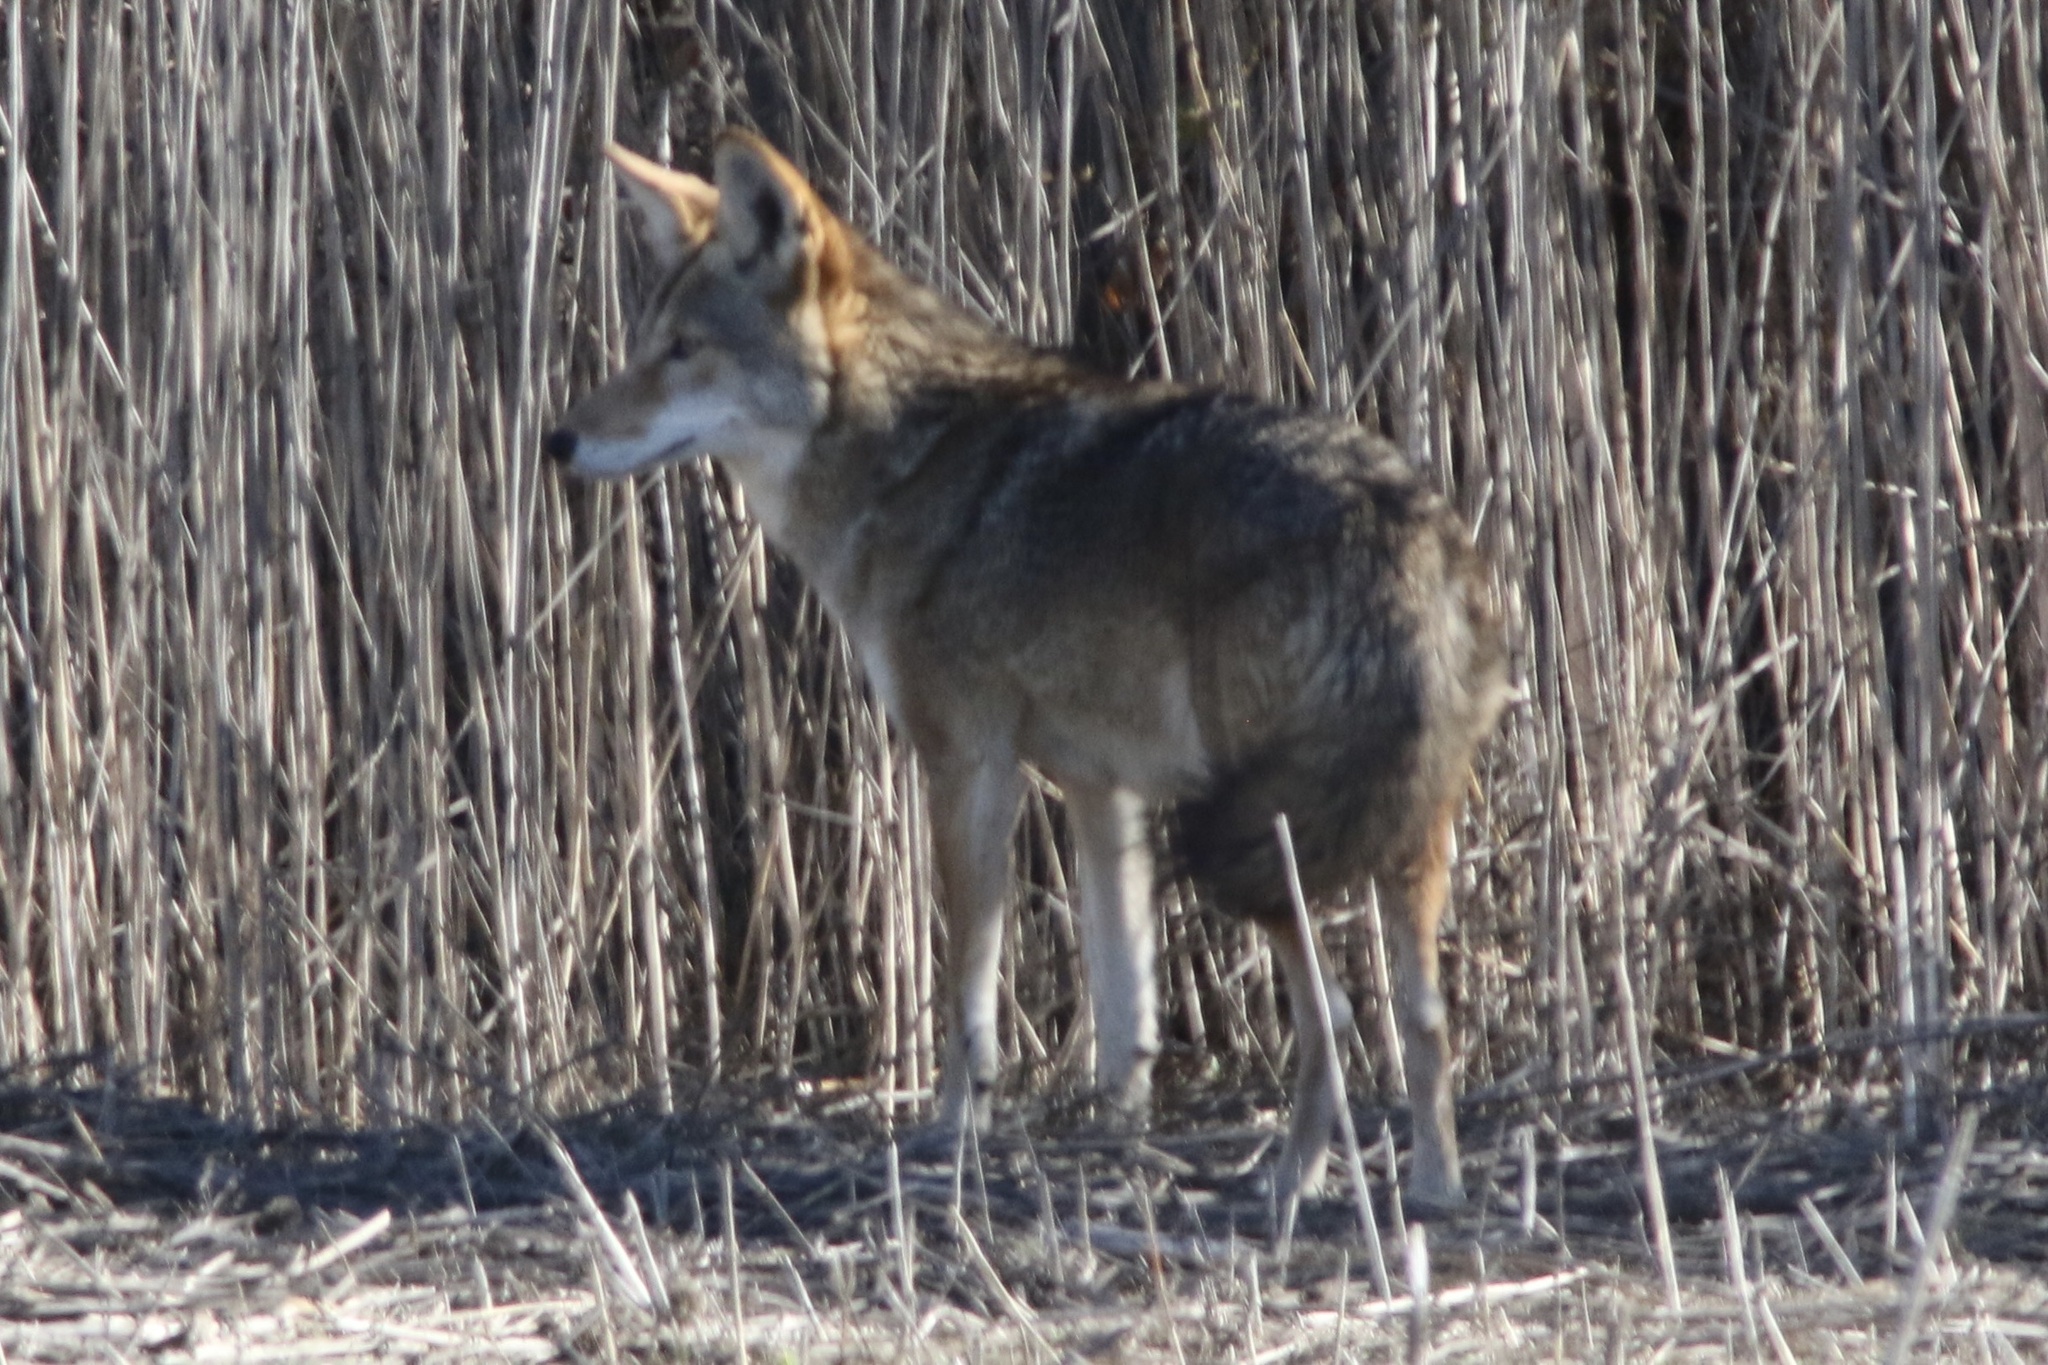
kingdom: Animalia
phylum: Chordata
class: Mammalia
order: Carnivora
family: Canidae
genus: Canis
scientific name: Canis latrans
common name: Coyote
